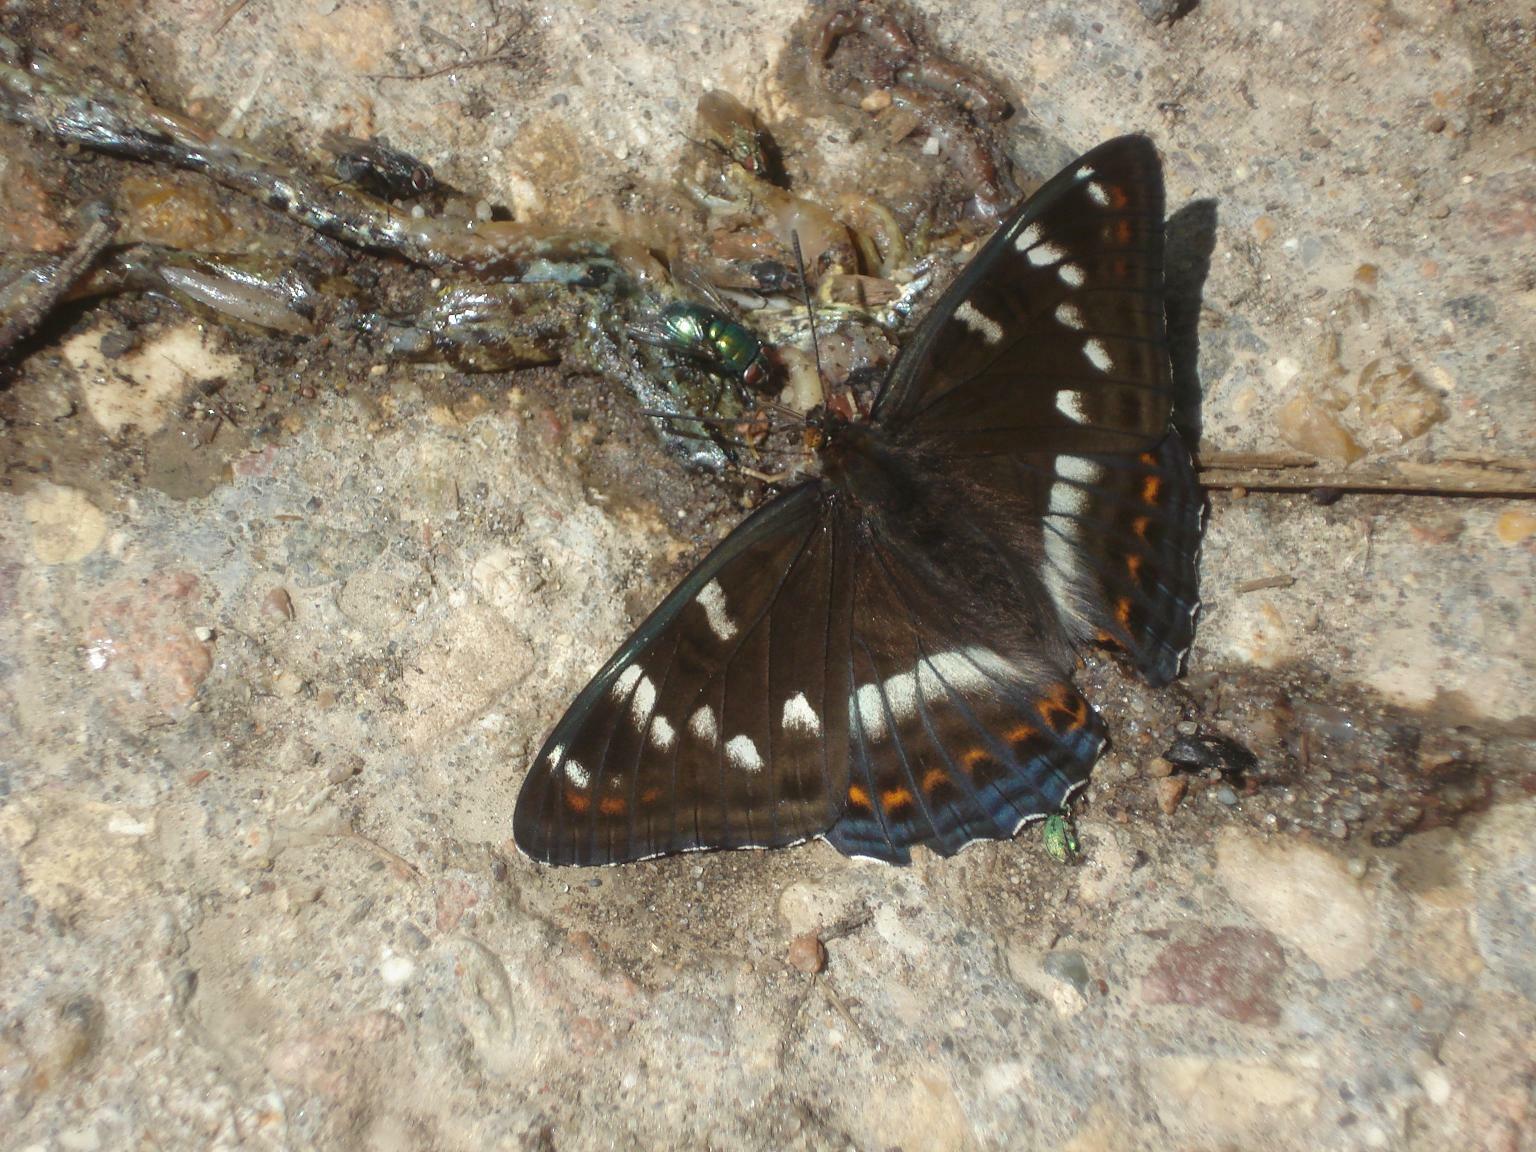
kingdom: Animalia
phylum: Arthropoda
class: Insecta
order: Lepidoptera
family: Nymphalidae
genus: Limenitis
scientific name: Limenitis populi
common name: Poplar admiral
